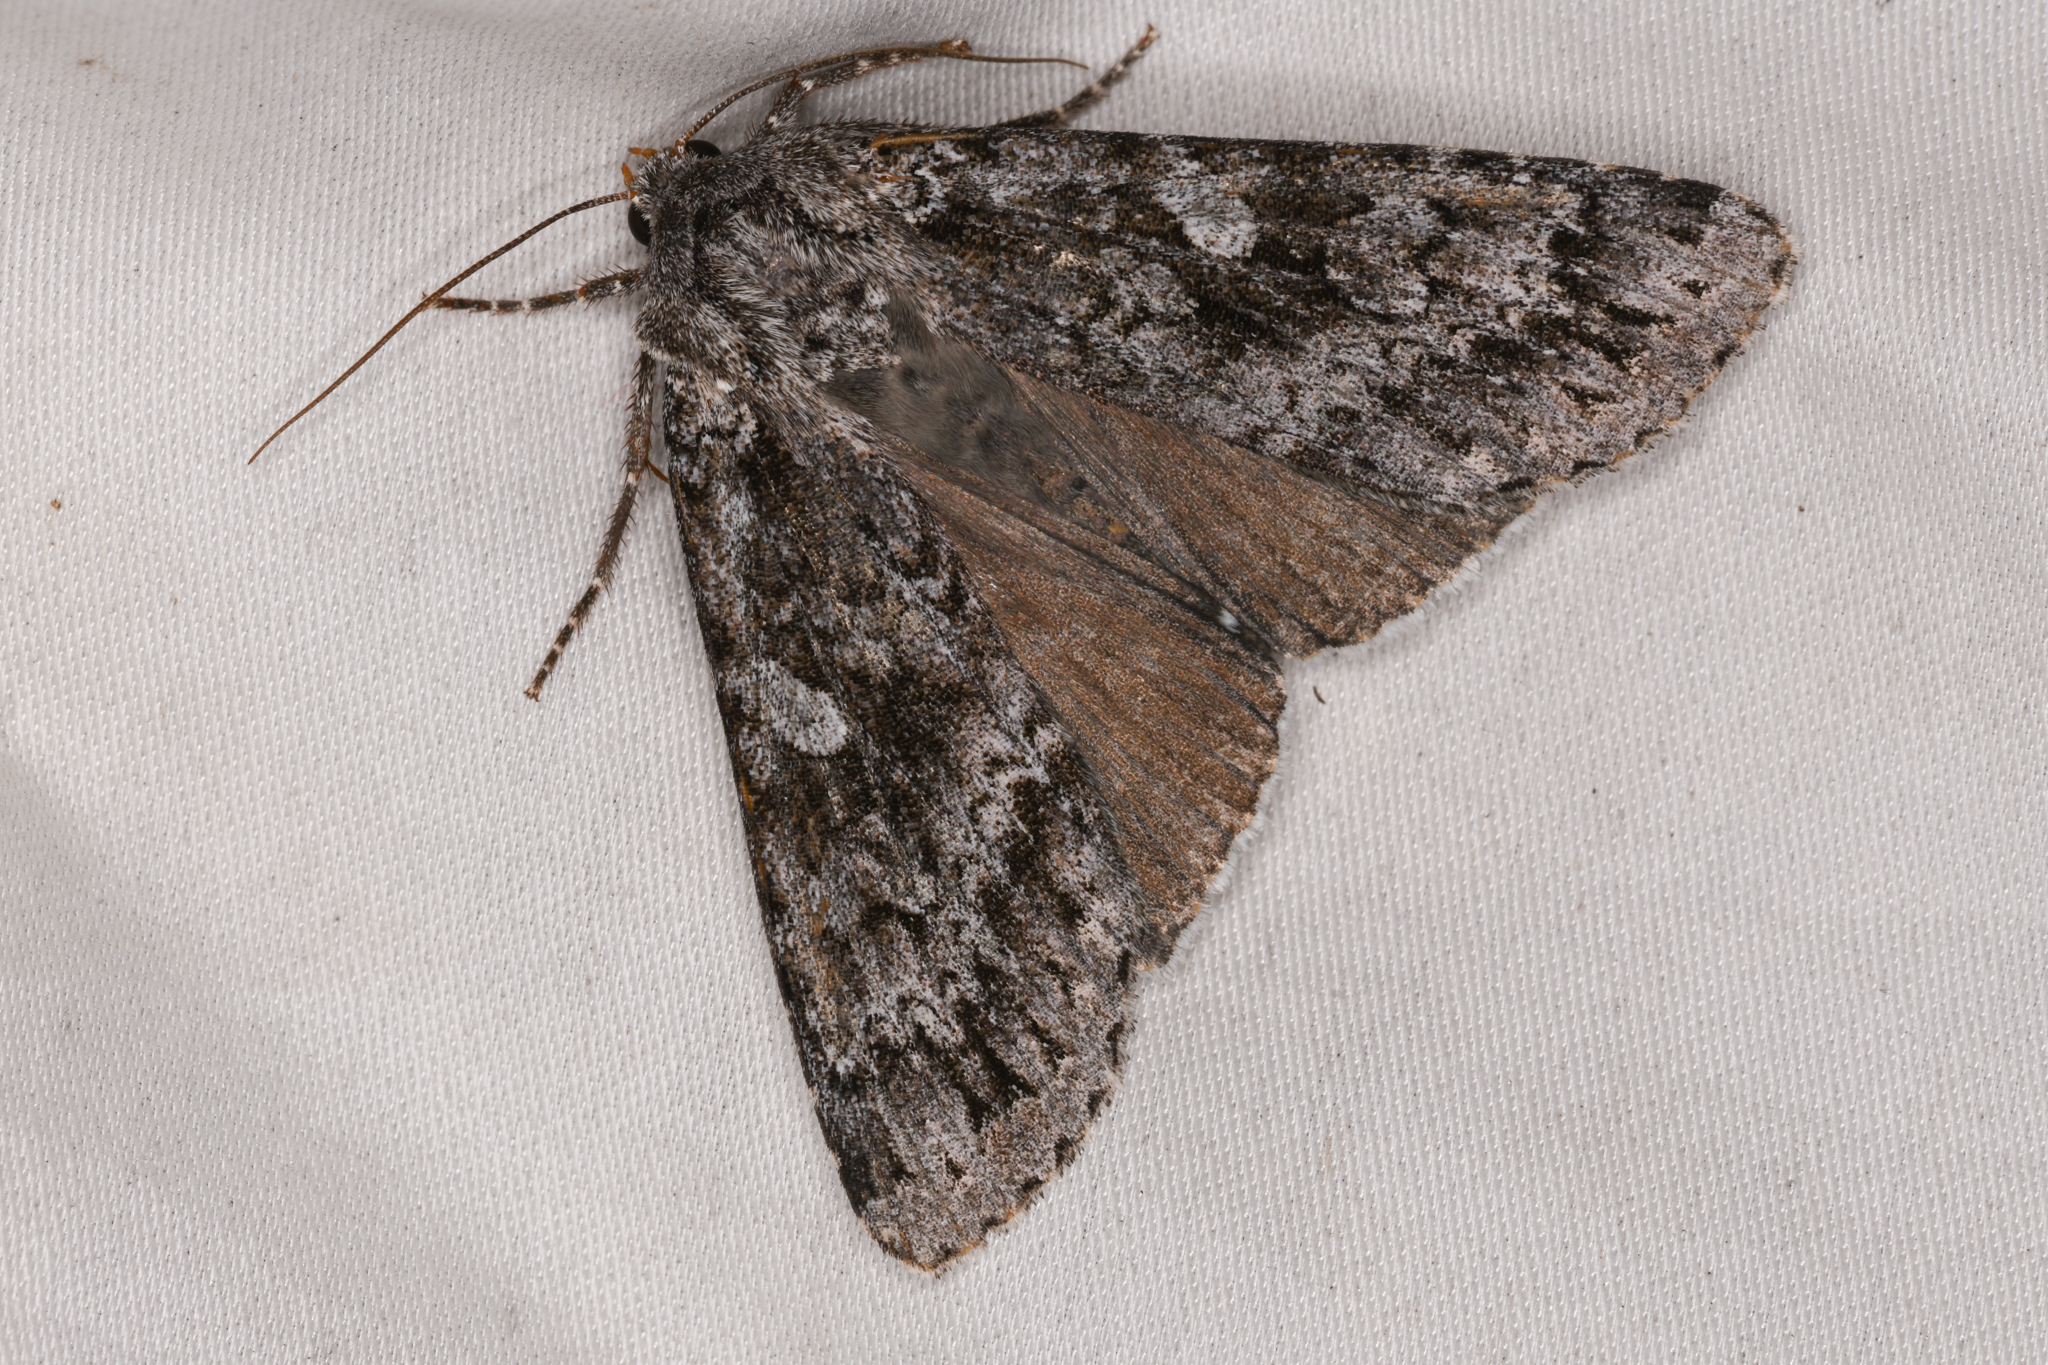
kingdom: Animalia
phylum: Arthropoda
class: Insecta
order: Lepidoptera
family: Noctuidae
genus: Eurois
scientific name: Eurois occulta
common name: Great brocade
